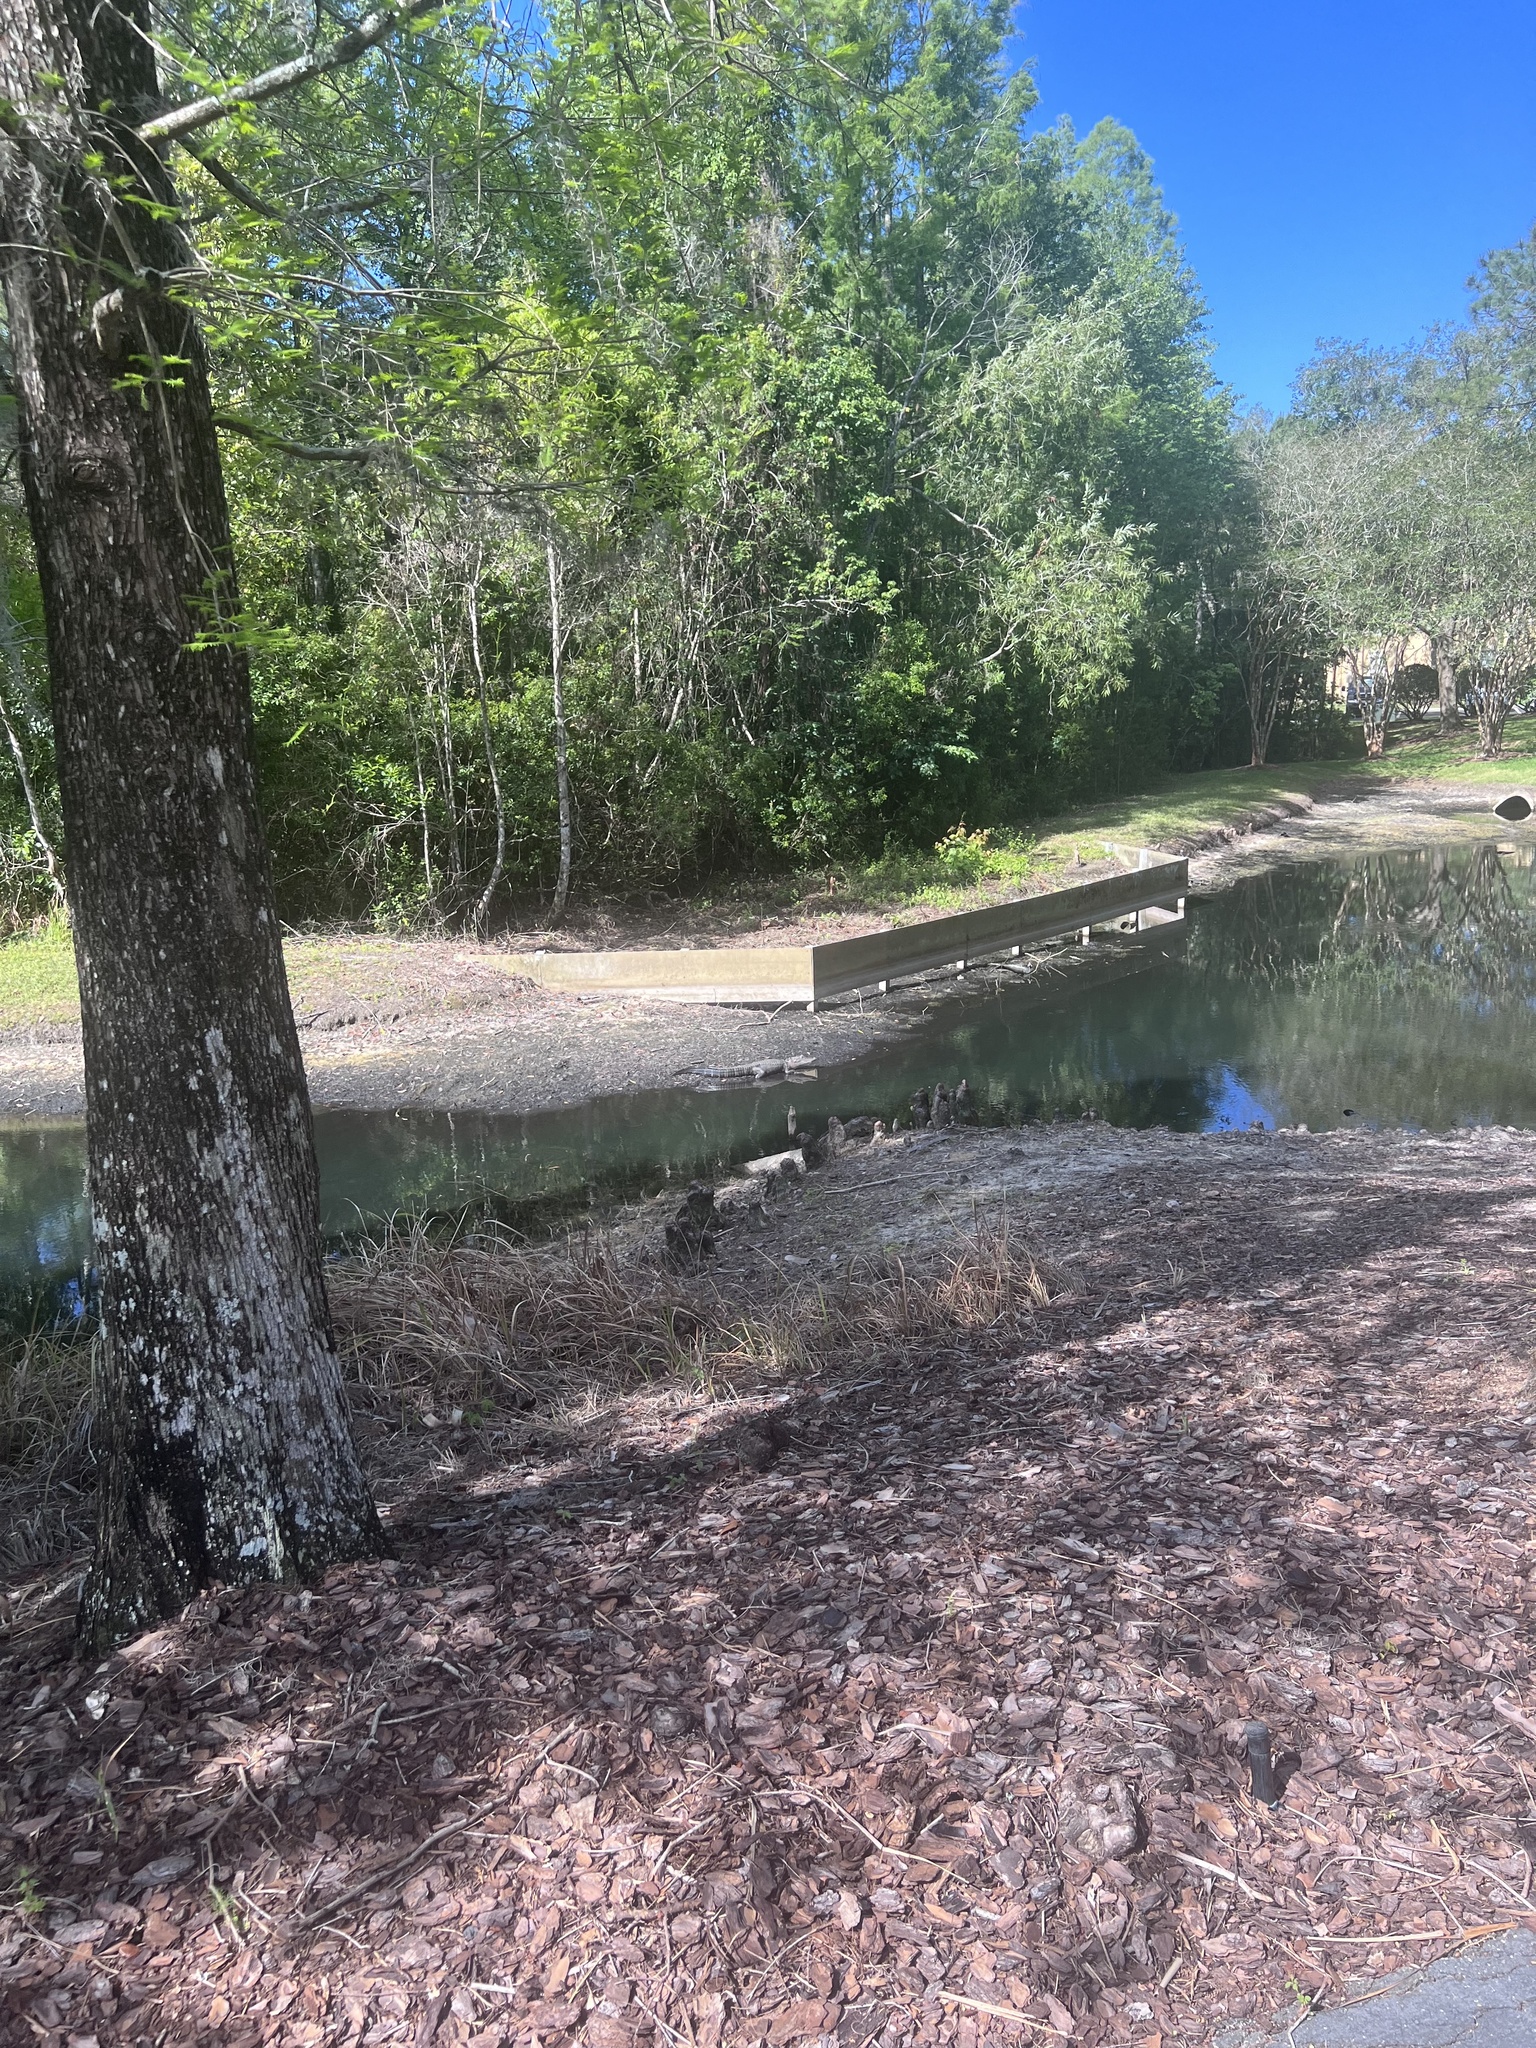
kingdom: Animalia
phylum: Chordata
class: Crocodylia
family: Alligatoridae
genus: Alligator
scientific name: Alligator mississippiensis
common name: American alligator
